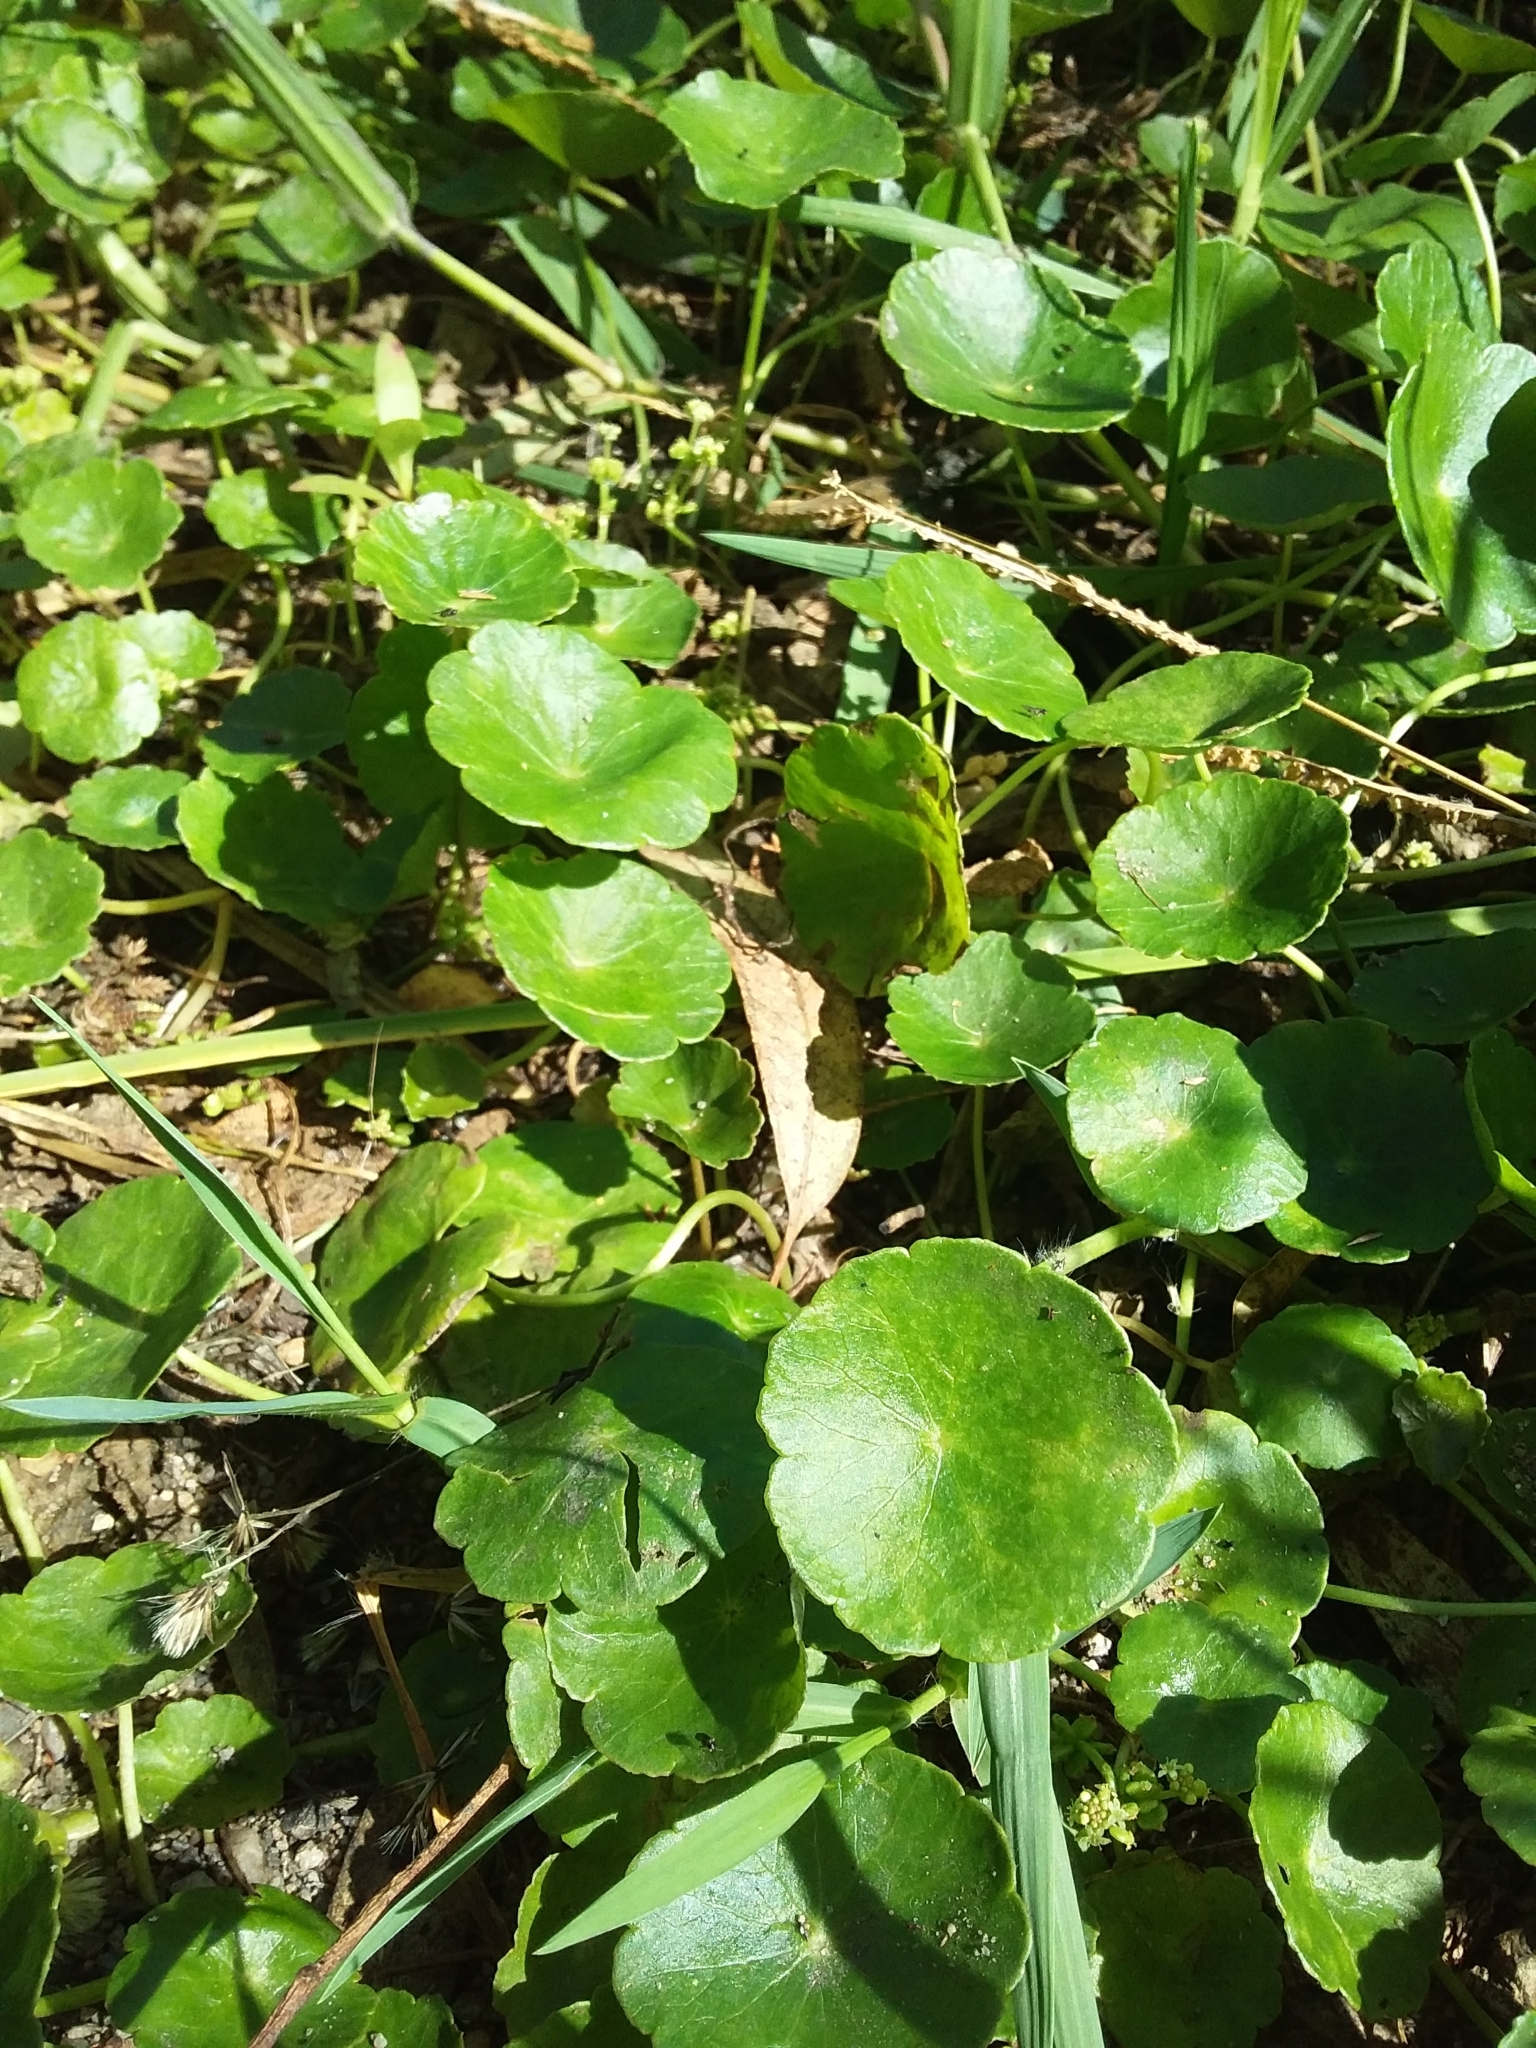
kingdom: Plantae
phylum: Tracheophyta
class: Magnoliopsida
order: Apiales
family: Araliaceae
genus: Hydrocotyle
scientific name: Hydrocotyle verticillata
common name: Whorled marshpennywort
